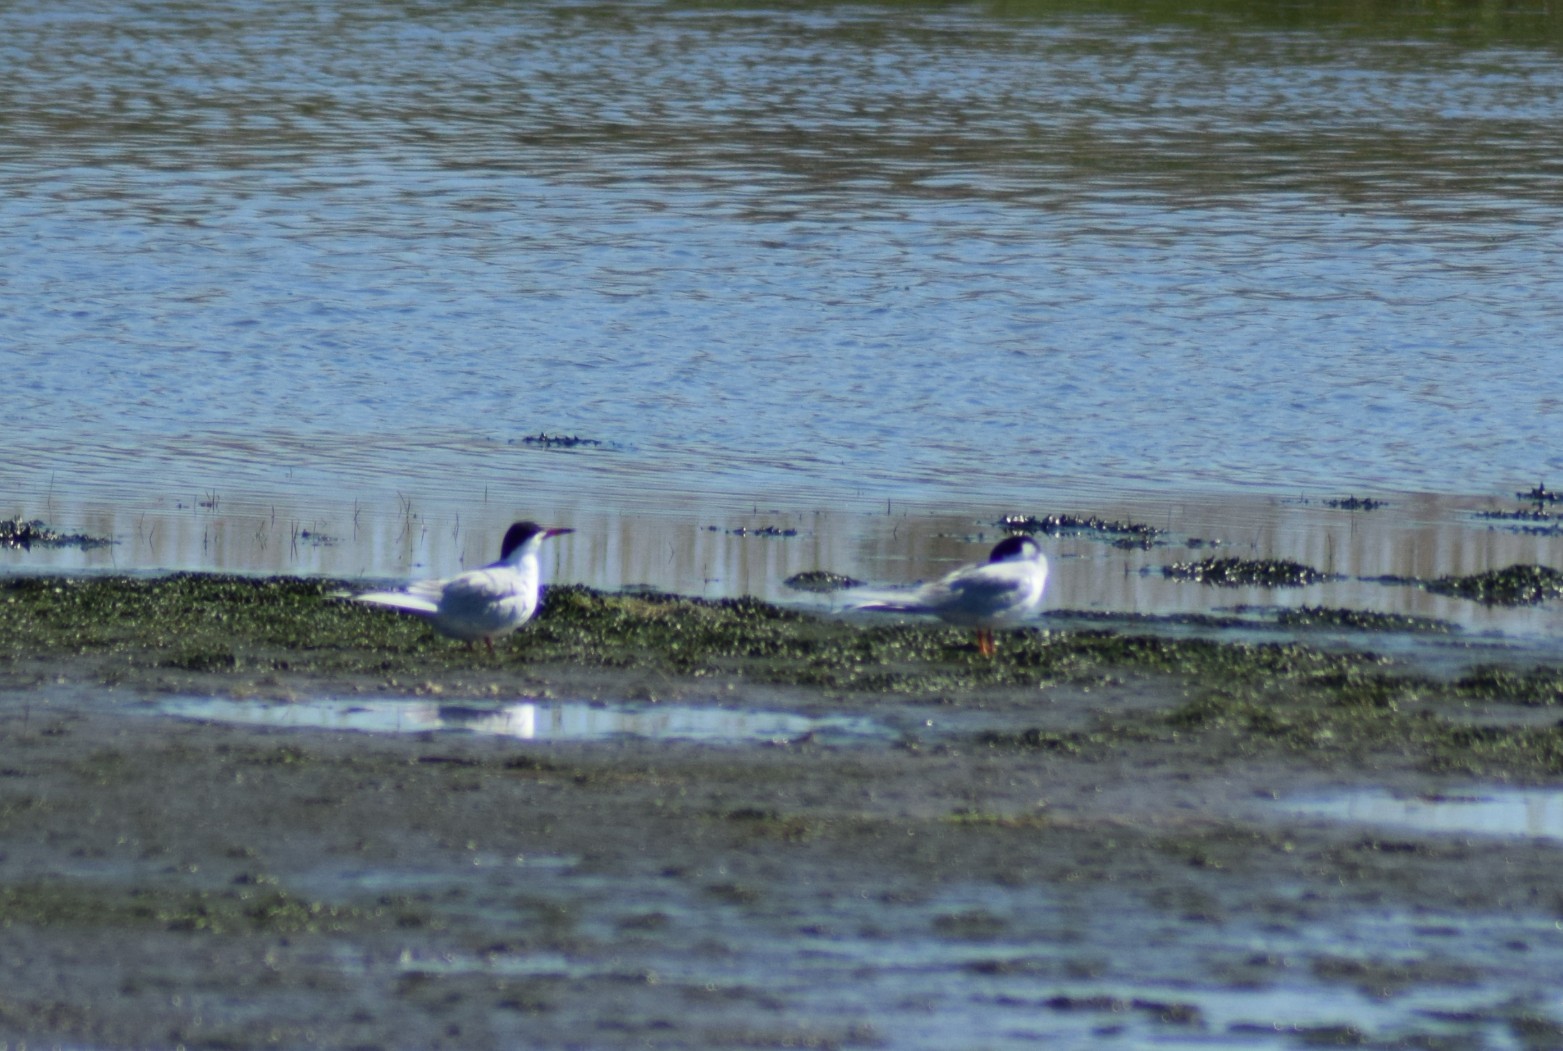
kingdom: Animalia
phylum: Chordata
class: Aves
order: Charadriiformes
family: Laridae
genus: Sterna
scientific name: Sterna forsteri
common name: Forster's tern
